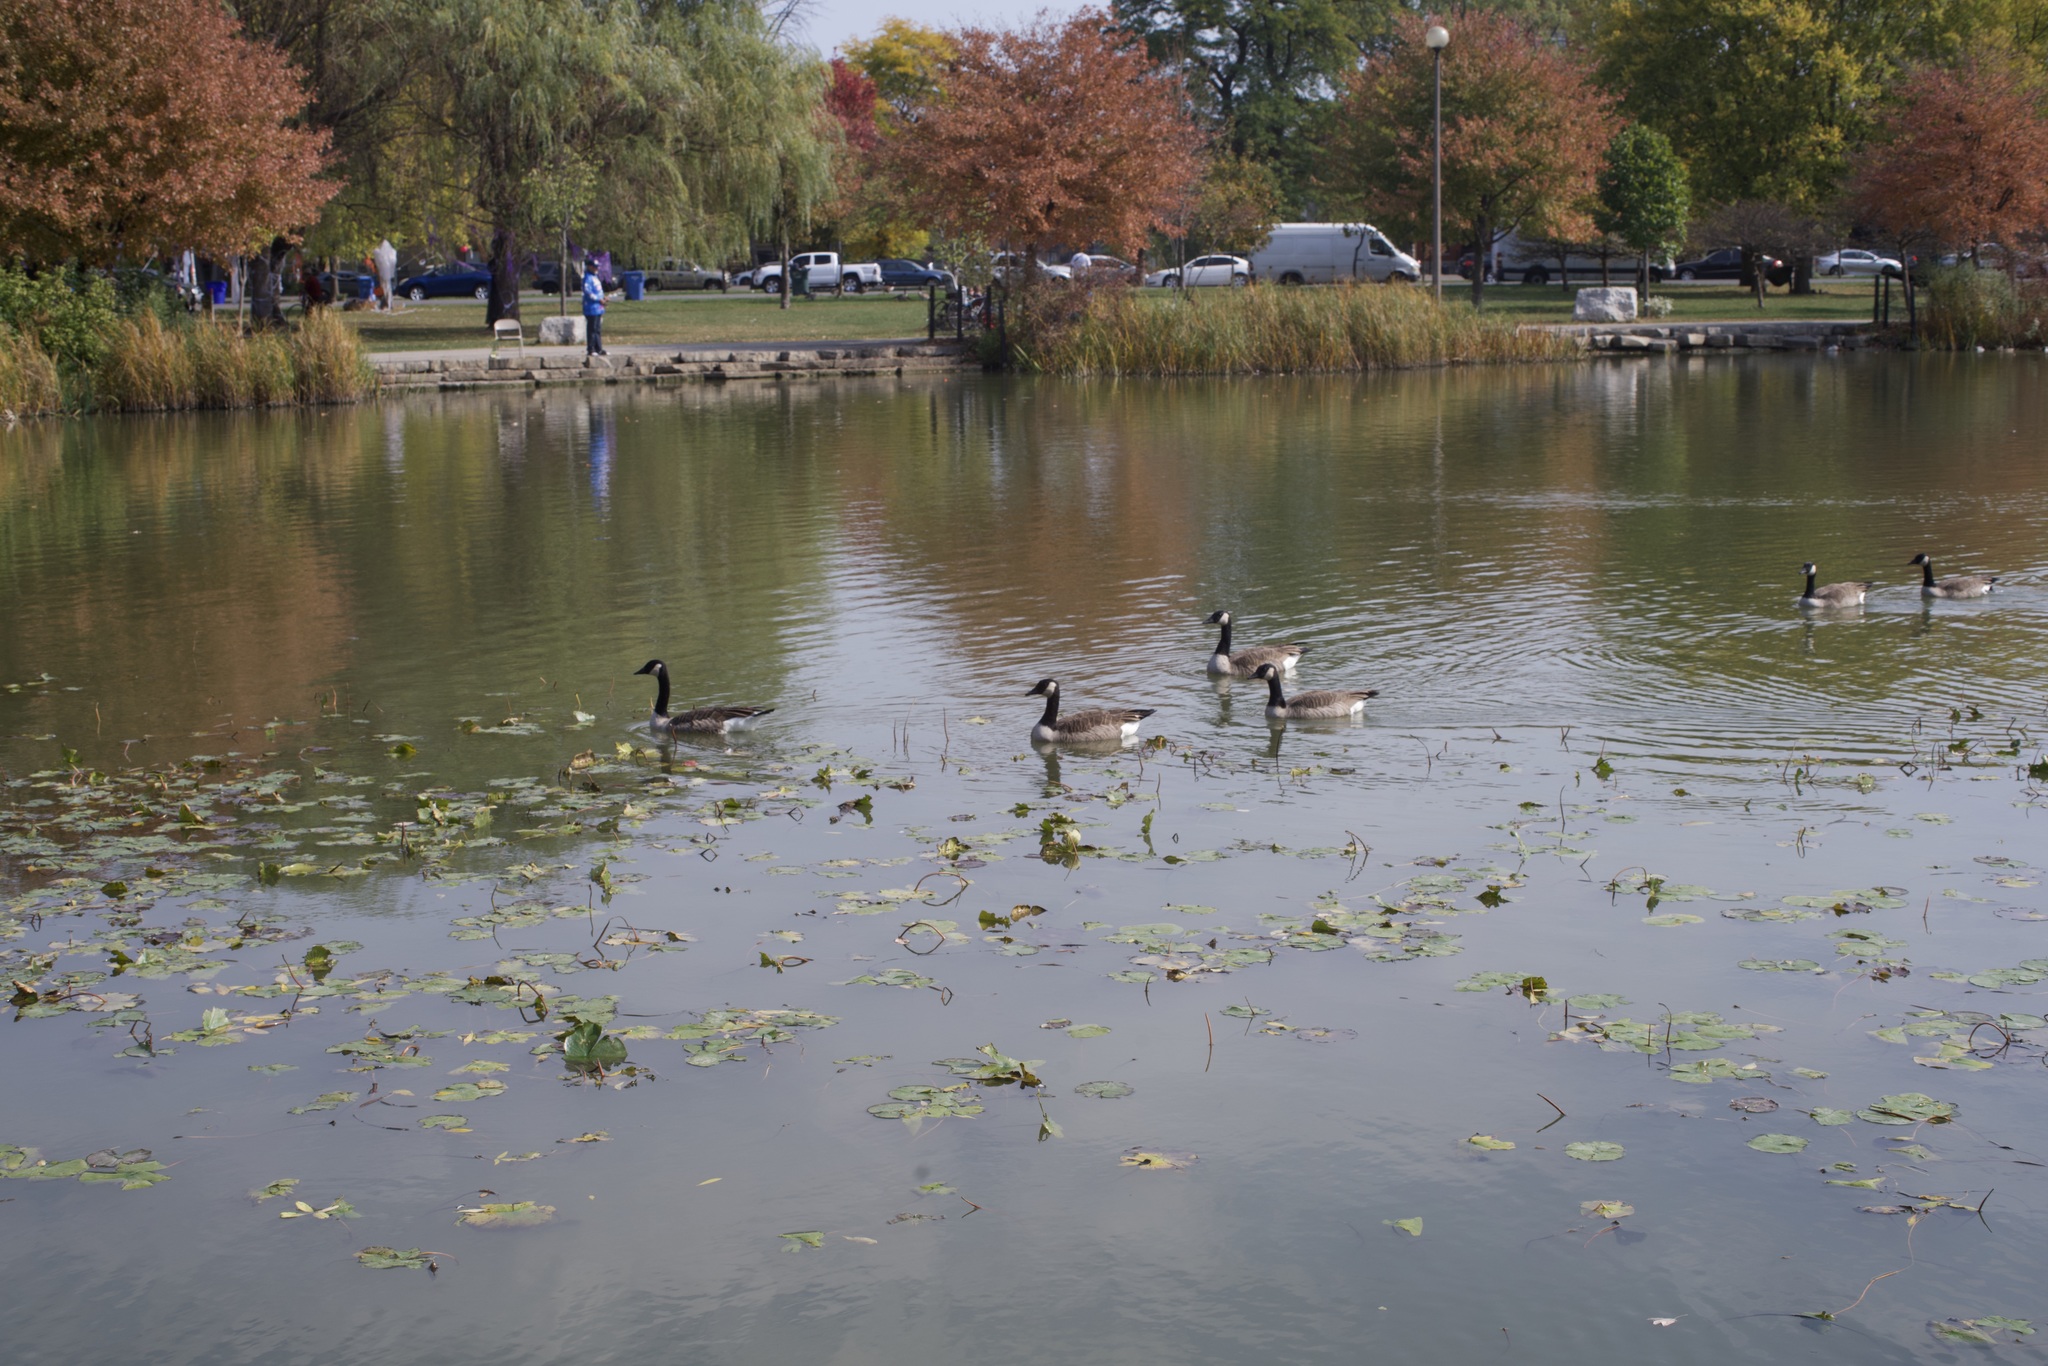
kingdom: Animalia
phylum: Chordata
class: Aves
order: Anseriformes
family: Anatidae
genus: Branta
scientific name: Branta canadensis
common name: Canada goose
